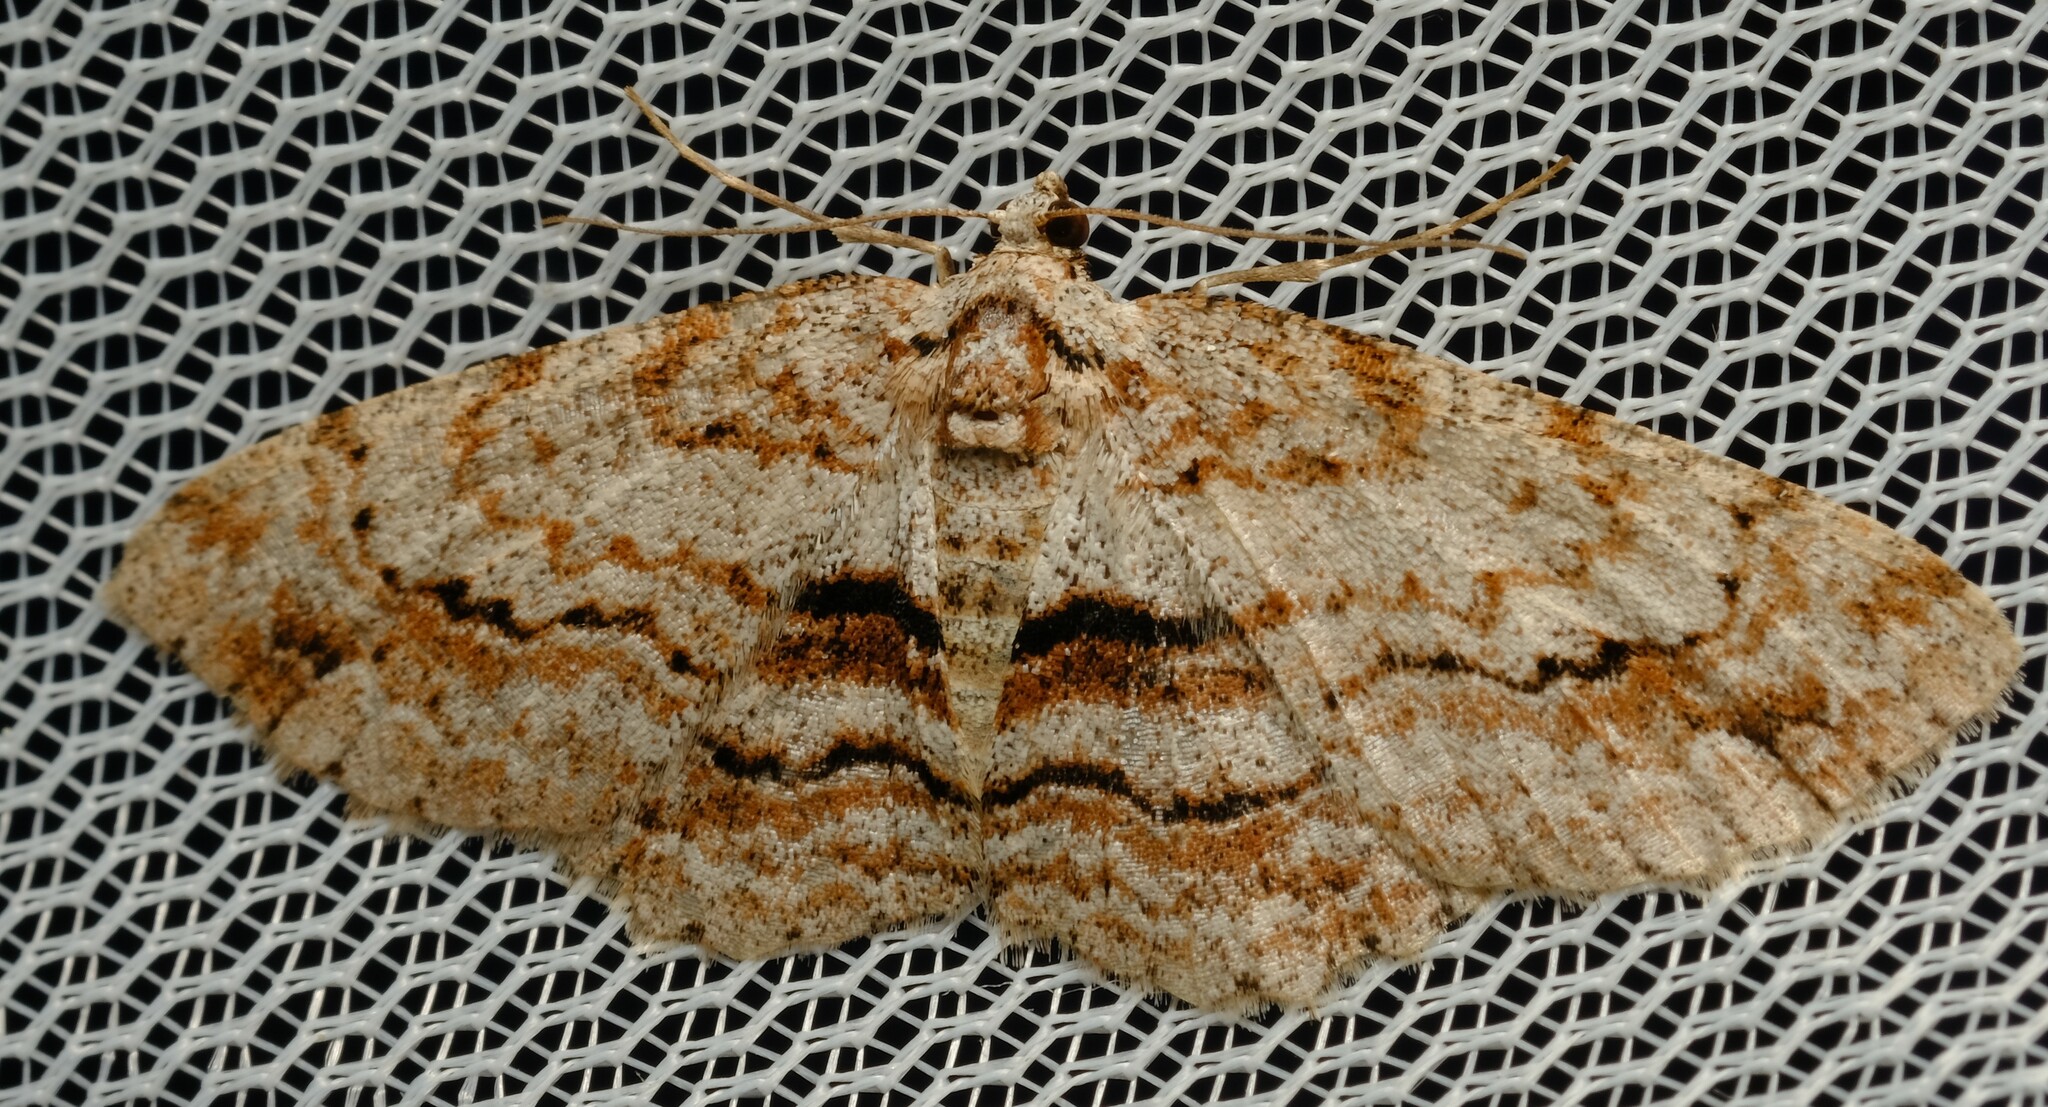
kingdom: Animalia
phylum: Arthropoda
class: Insecta
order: Lepidoptera
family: Geometridae
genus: Didymoctenia
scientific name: Didymoctenia exsuperata
